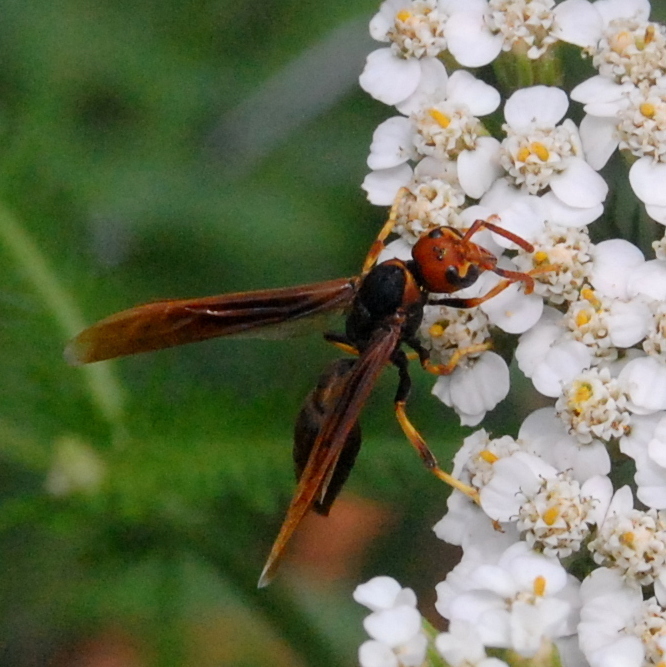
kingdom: Animalia
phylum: Arthropoda
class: Insecta
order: Hymenoptera
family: Eumenidae
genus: Montezumia
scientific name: Montezumia ferruginea
